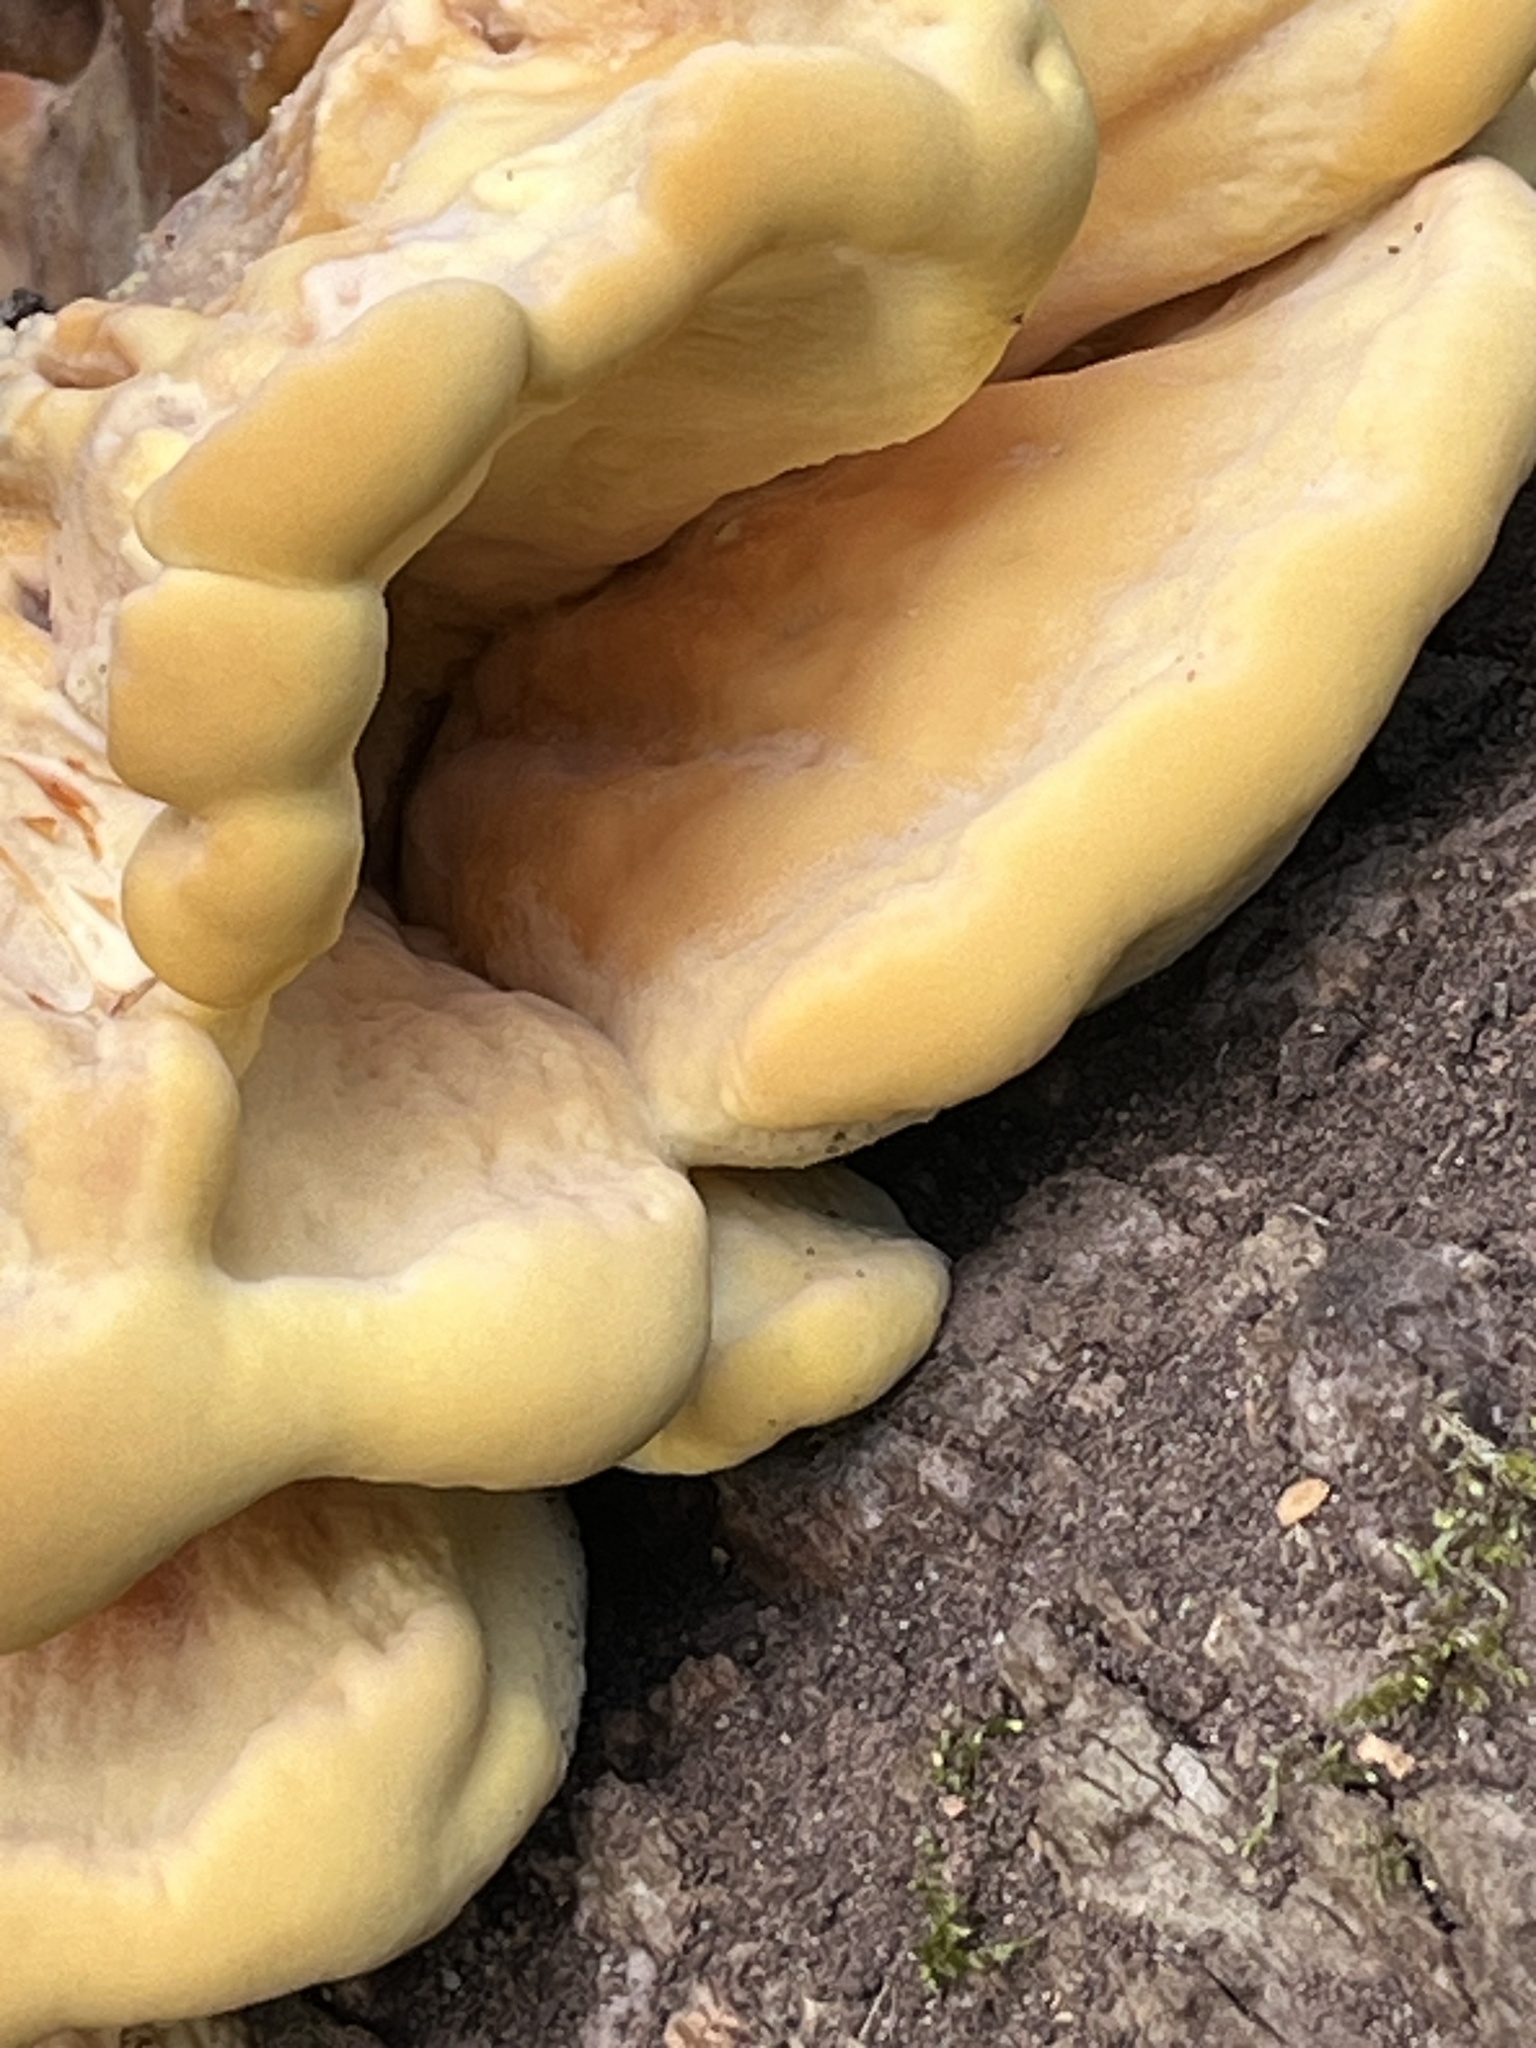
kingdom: Fungi
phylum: Basidiomycota
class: Agaricomycetes
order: Polyporales
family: Laetiporaceae
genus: Laetiporus
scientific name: Laetiporus sulphureus
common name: Chicken of the woods
